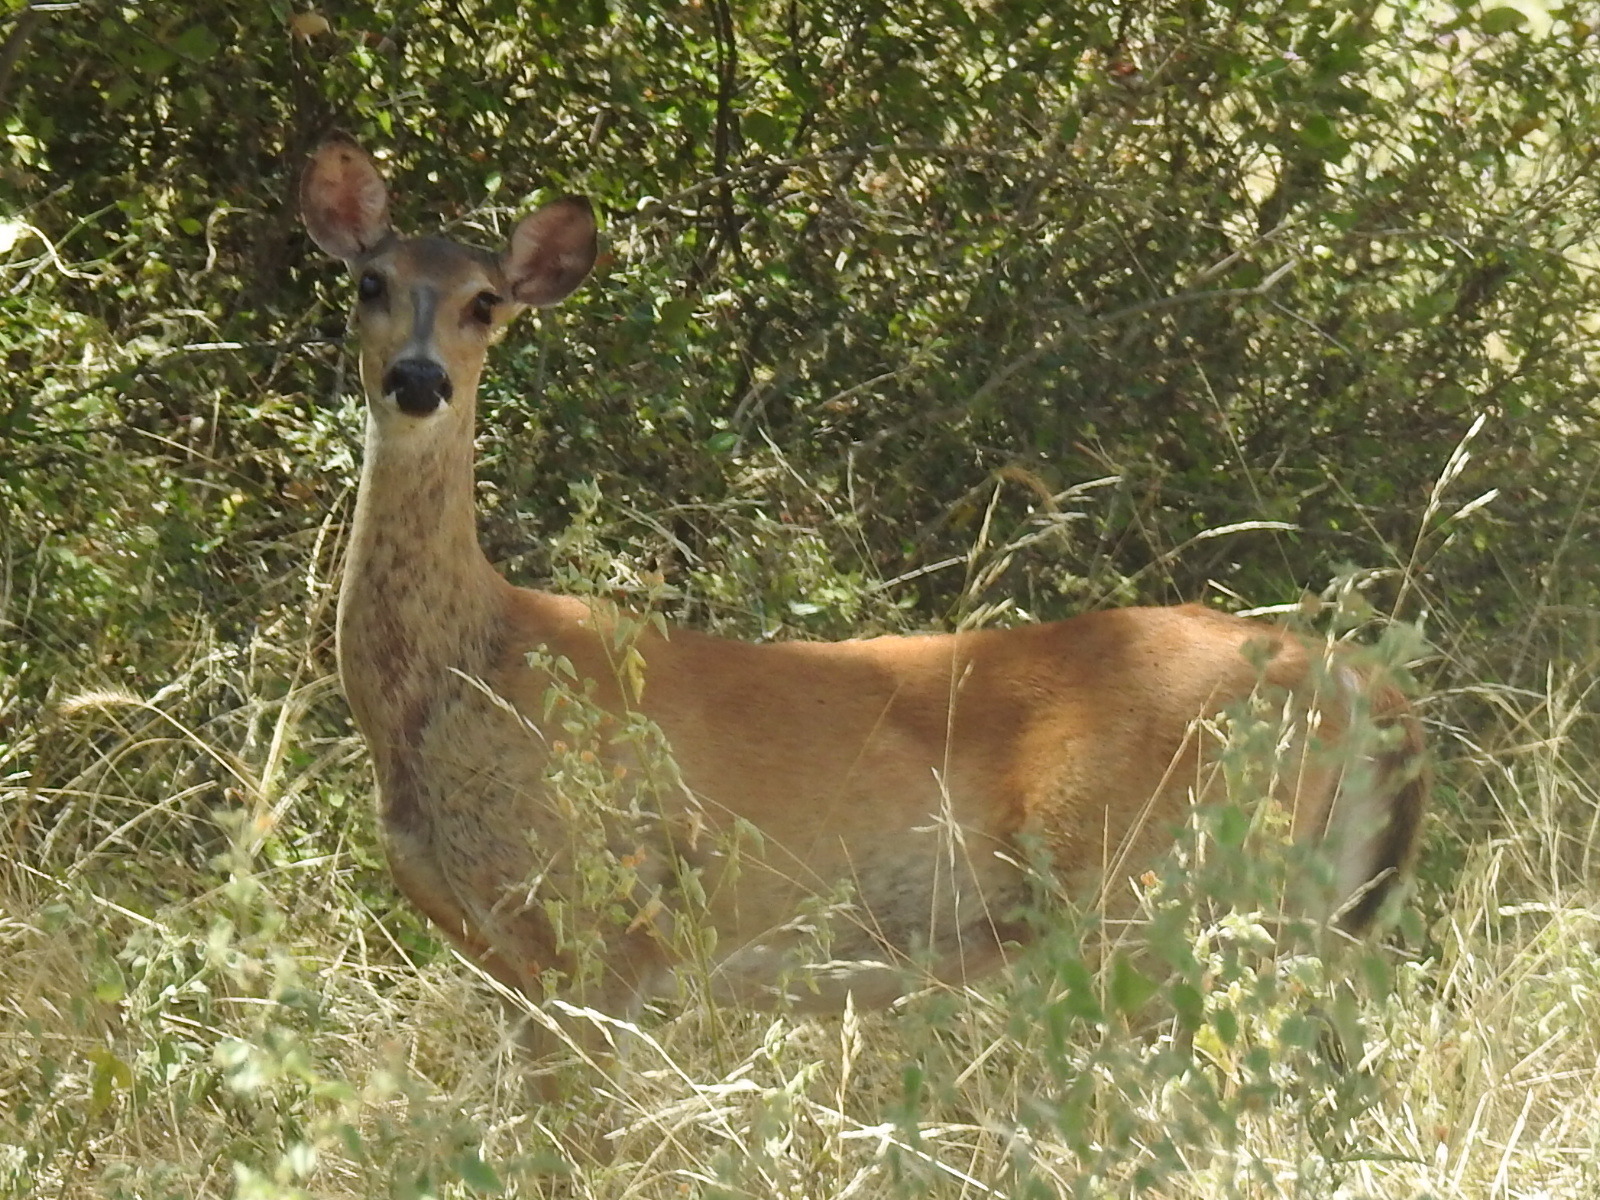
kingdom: Animalia
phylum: Chordata
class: Mammalia
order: Artiodactyla
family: Cervidae
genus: Odocoileus
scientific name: Odocoileus virginianus
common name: White-tailed deer
